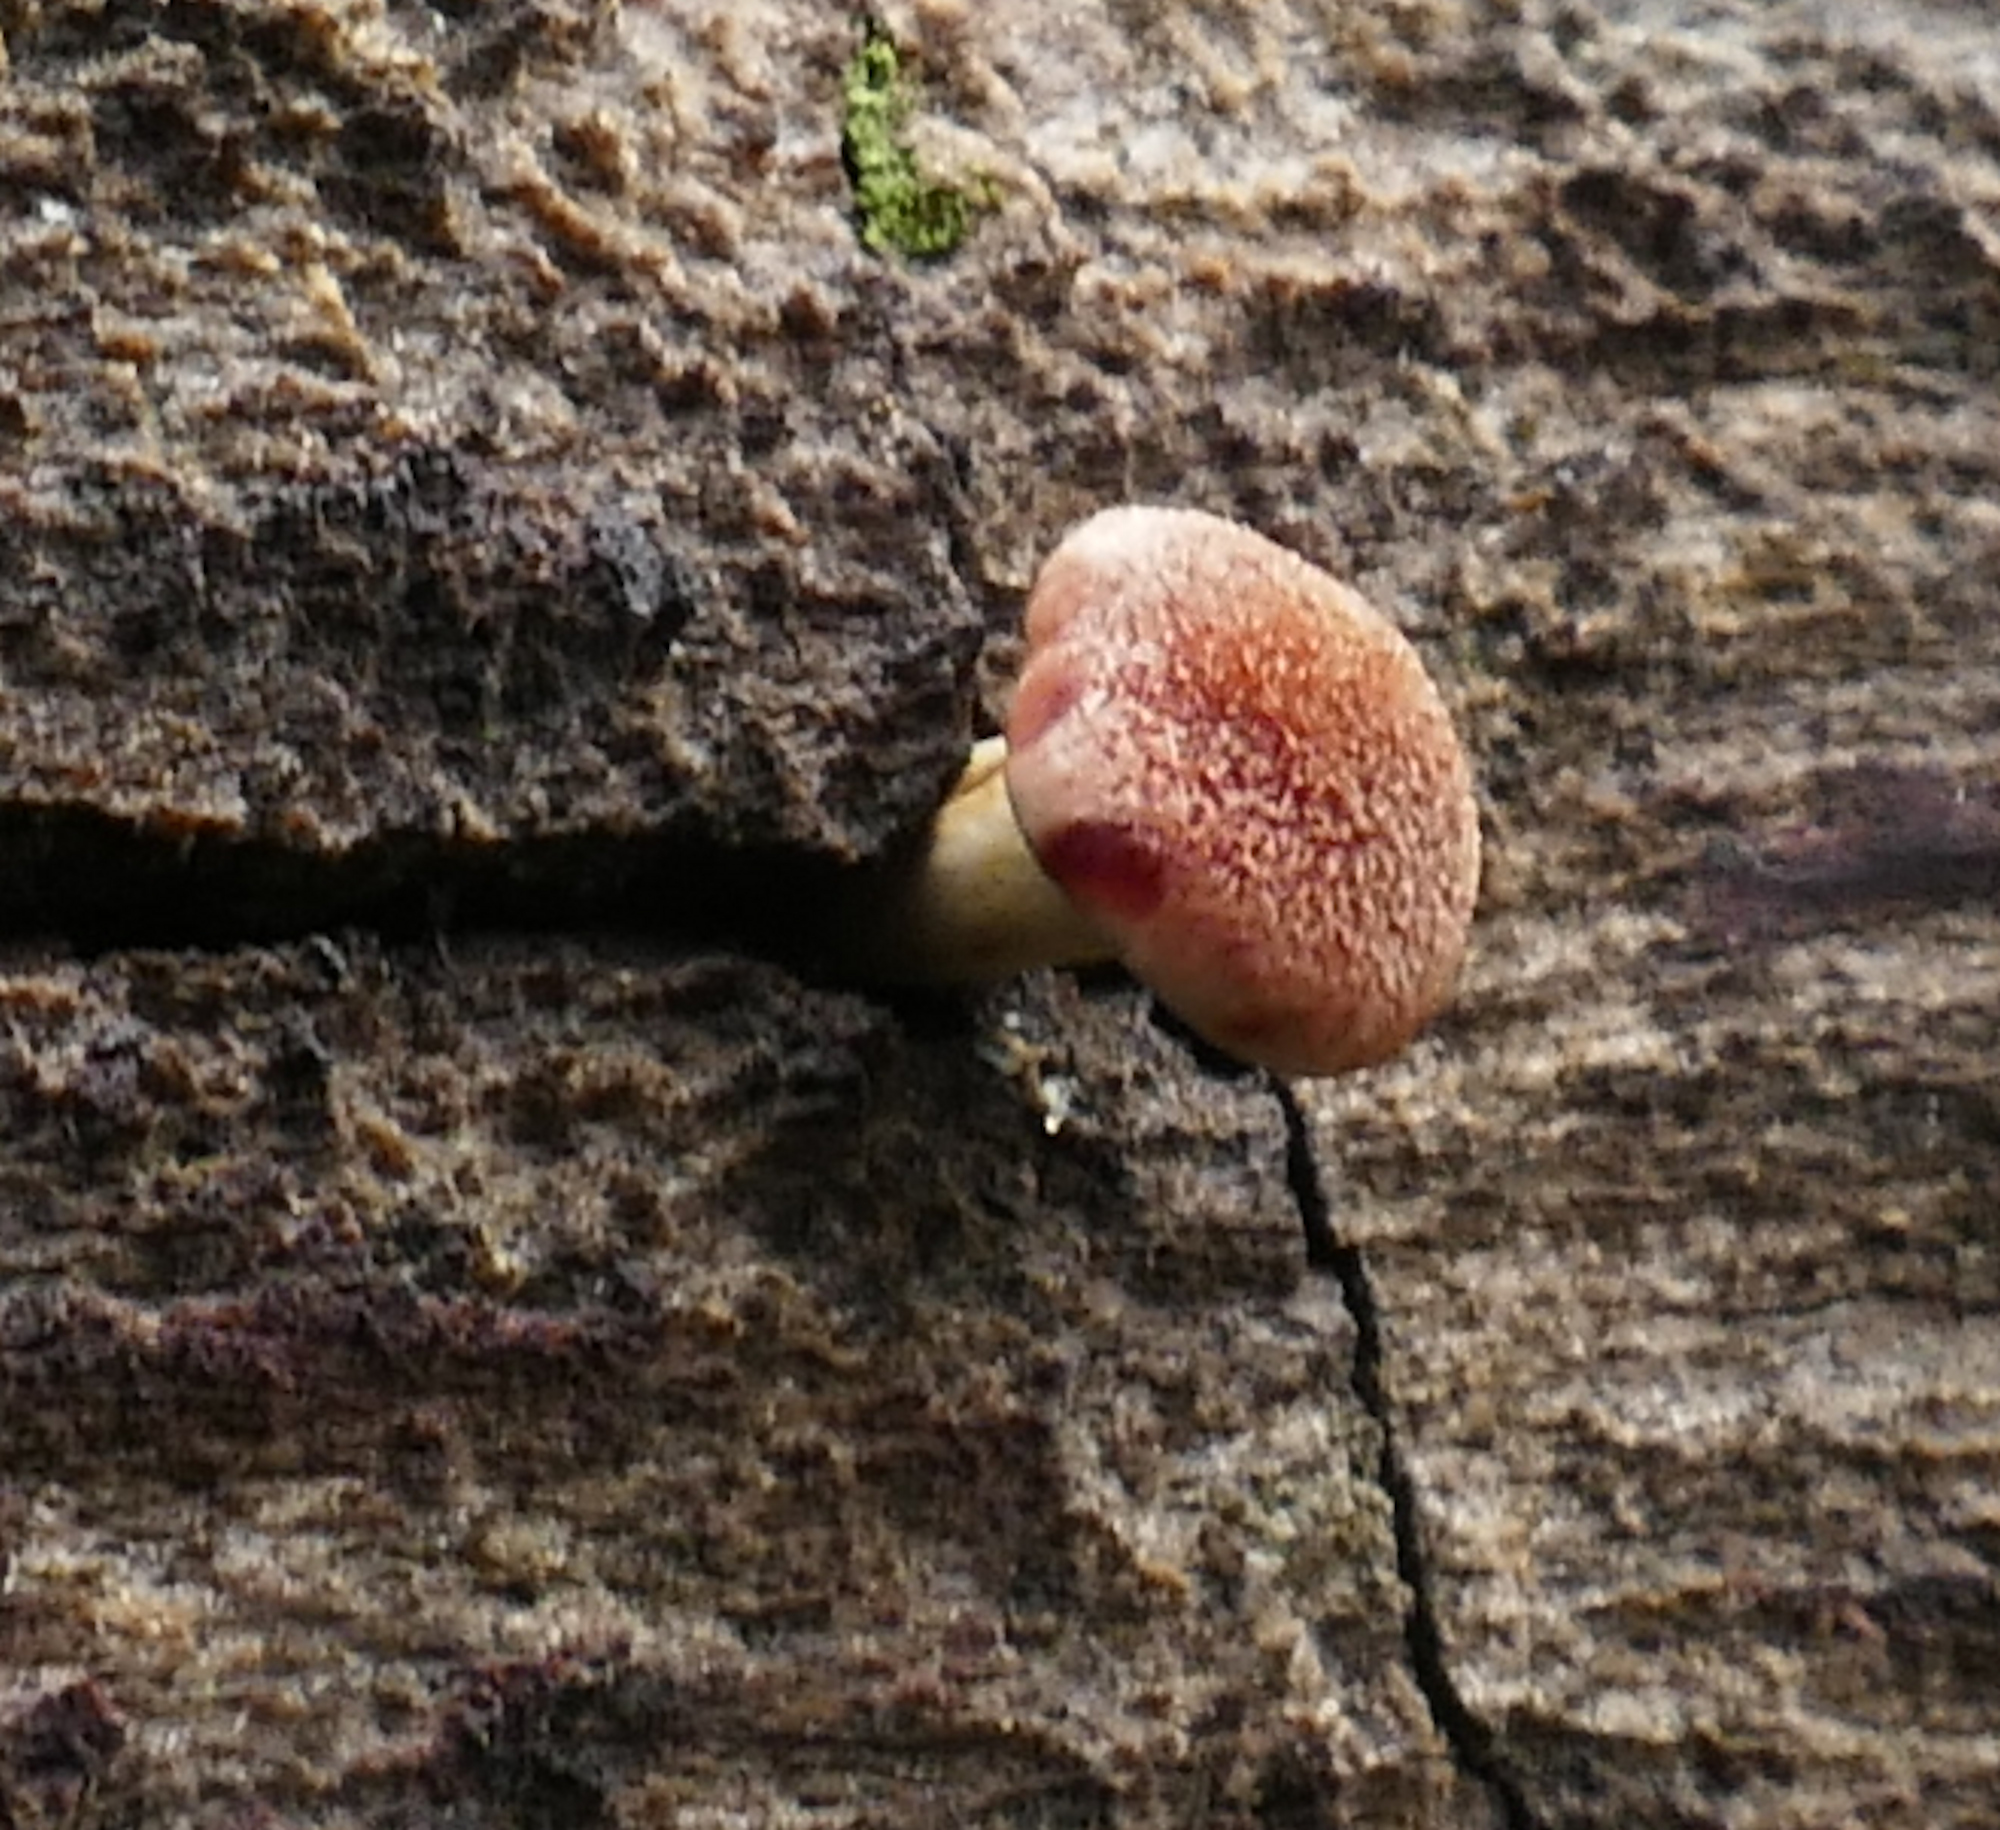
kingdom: Fungi
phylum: Basidiomycota
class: Agaricomycetes
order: Agaricales
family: Hymenogastraceae
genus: Gymnopilus
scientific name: Gymnopilus luteofolius
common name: Yellow-gilled gymnopilus
